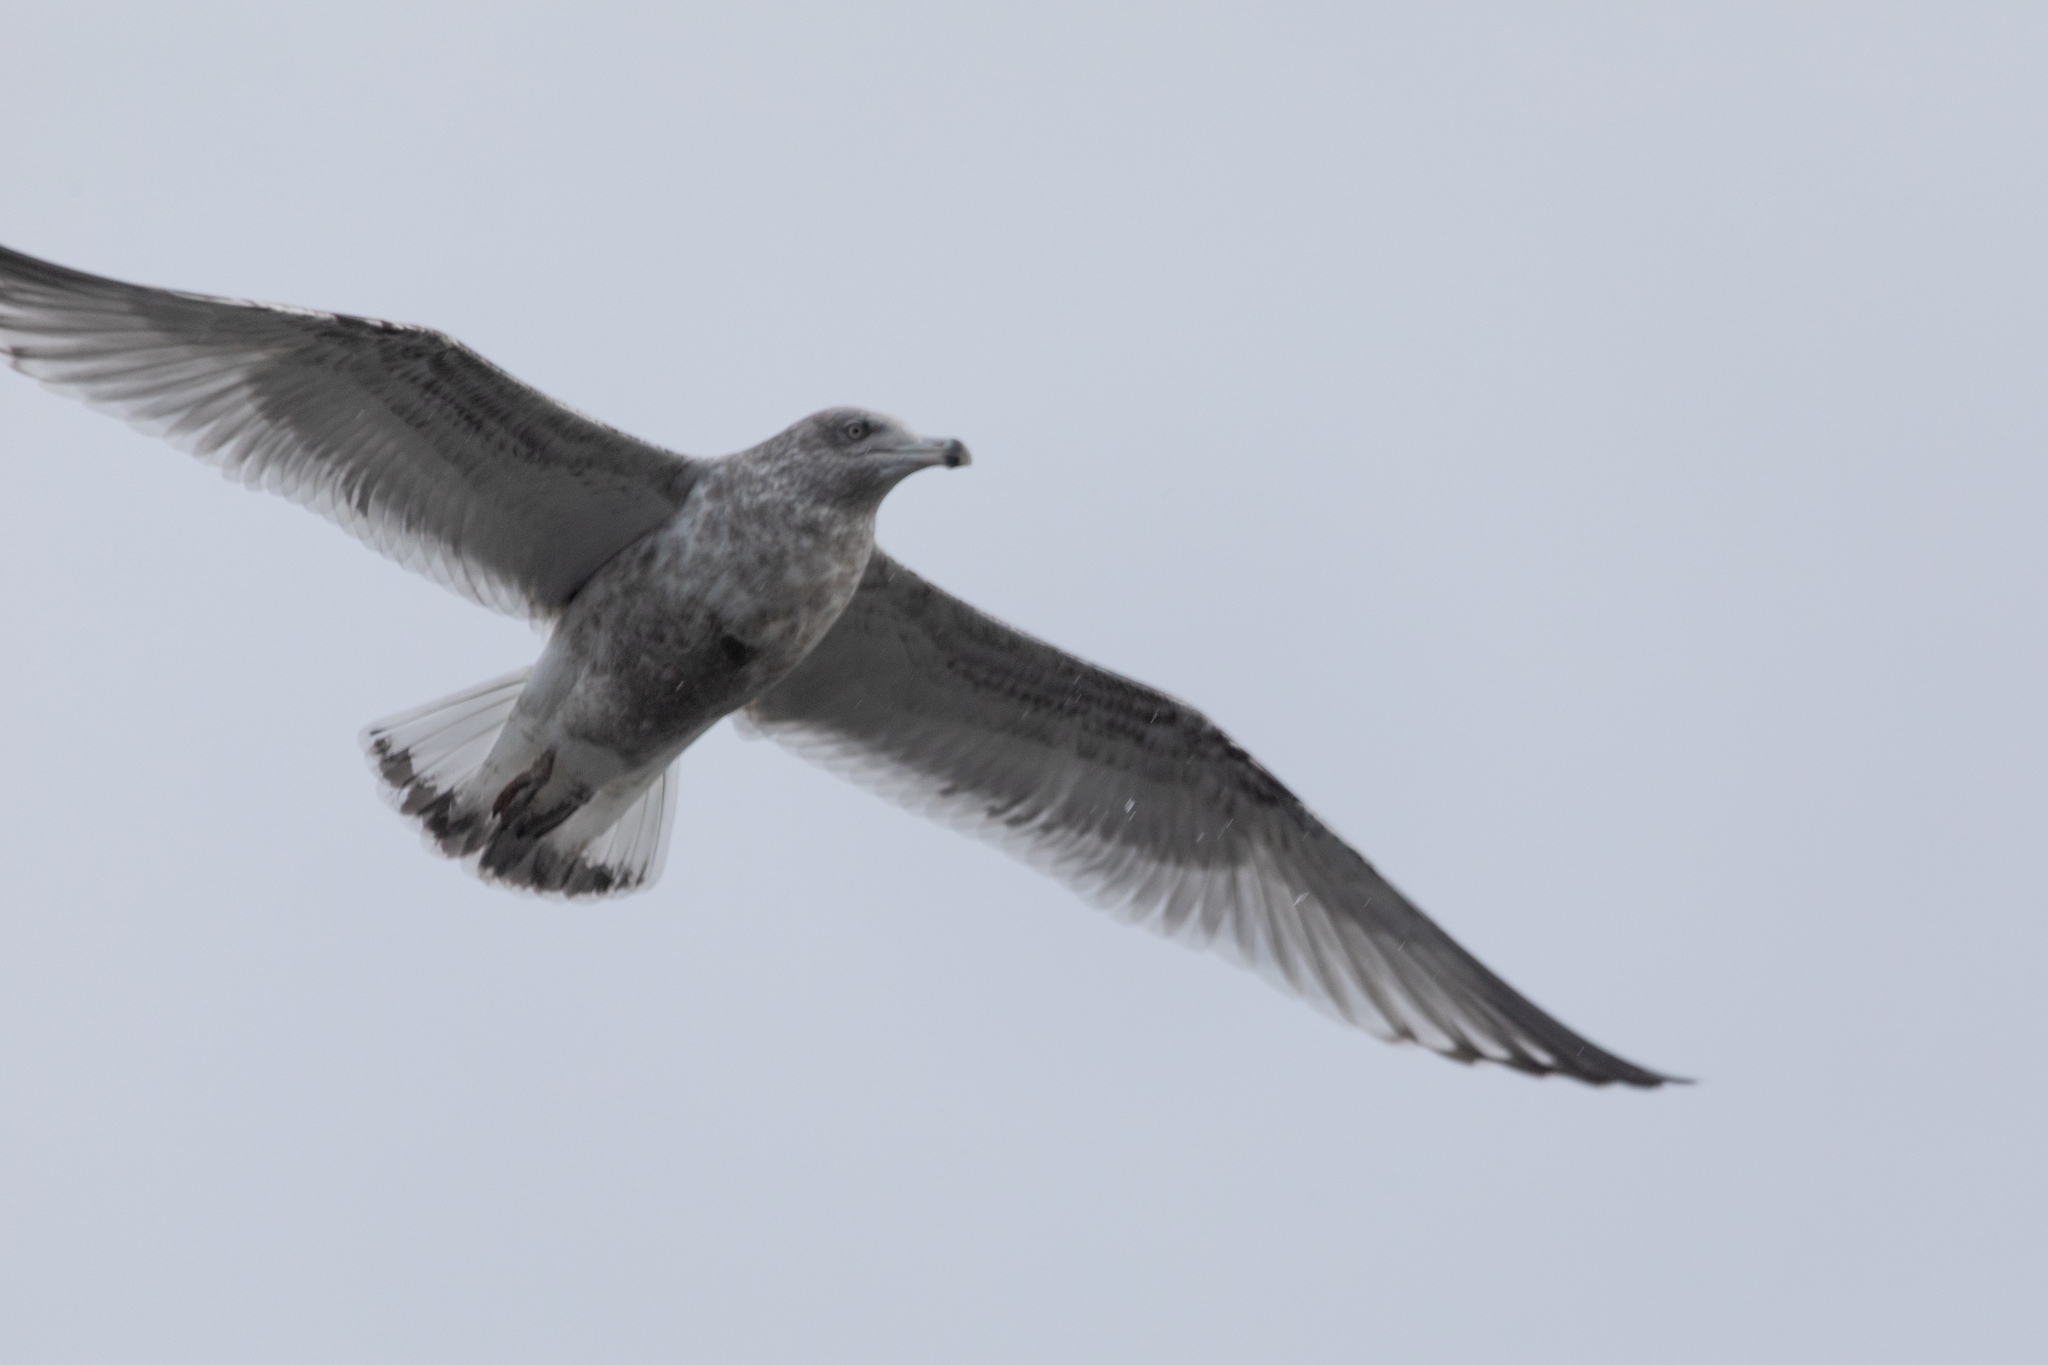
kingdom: Animalia
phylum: Chordata
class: Aves
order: Charadriiformes
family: Laridae
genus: Larus
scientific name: Larus argentatus
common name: Herring gull
